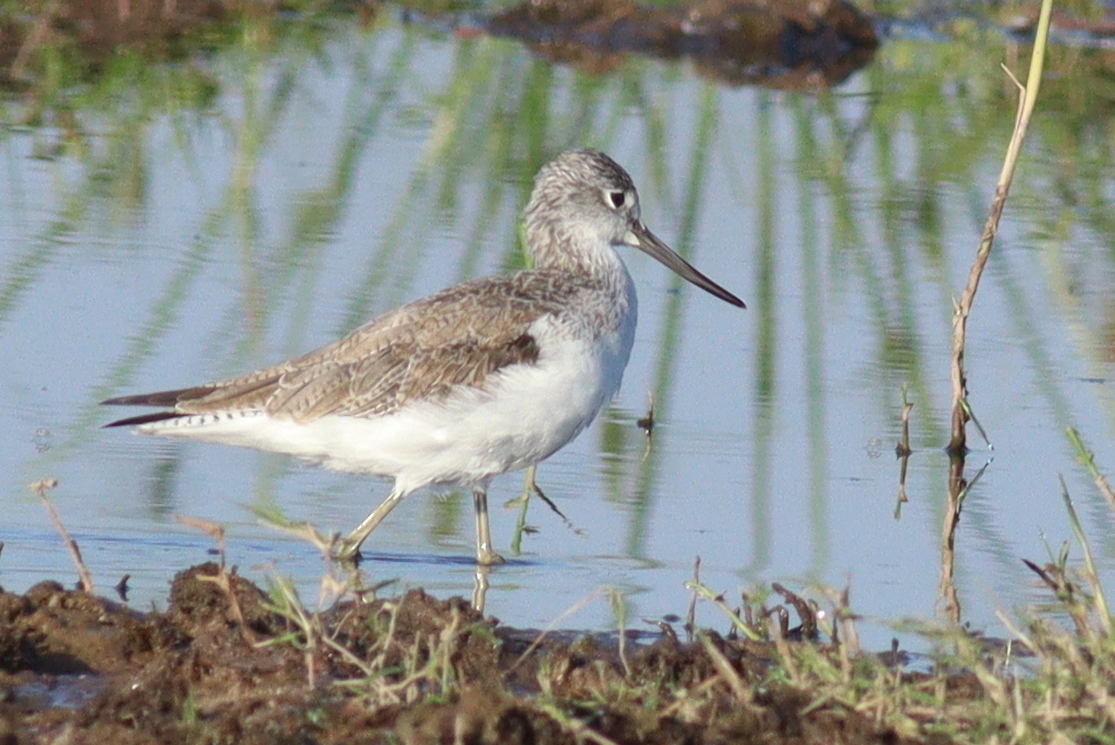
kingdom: Animalia
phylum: Chordata
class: Aves
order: Charadriiformes
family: Scolopacidae
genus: Tringa
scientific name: Tringa nebularia
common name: Common greenshank
